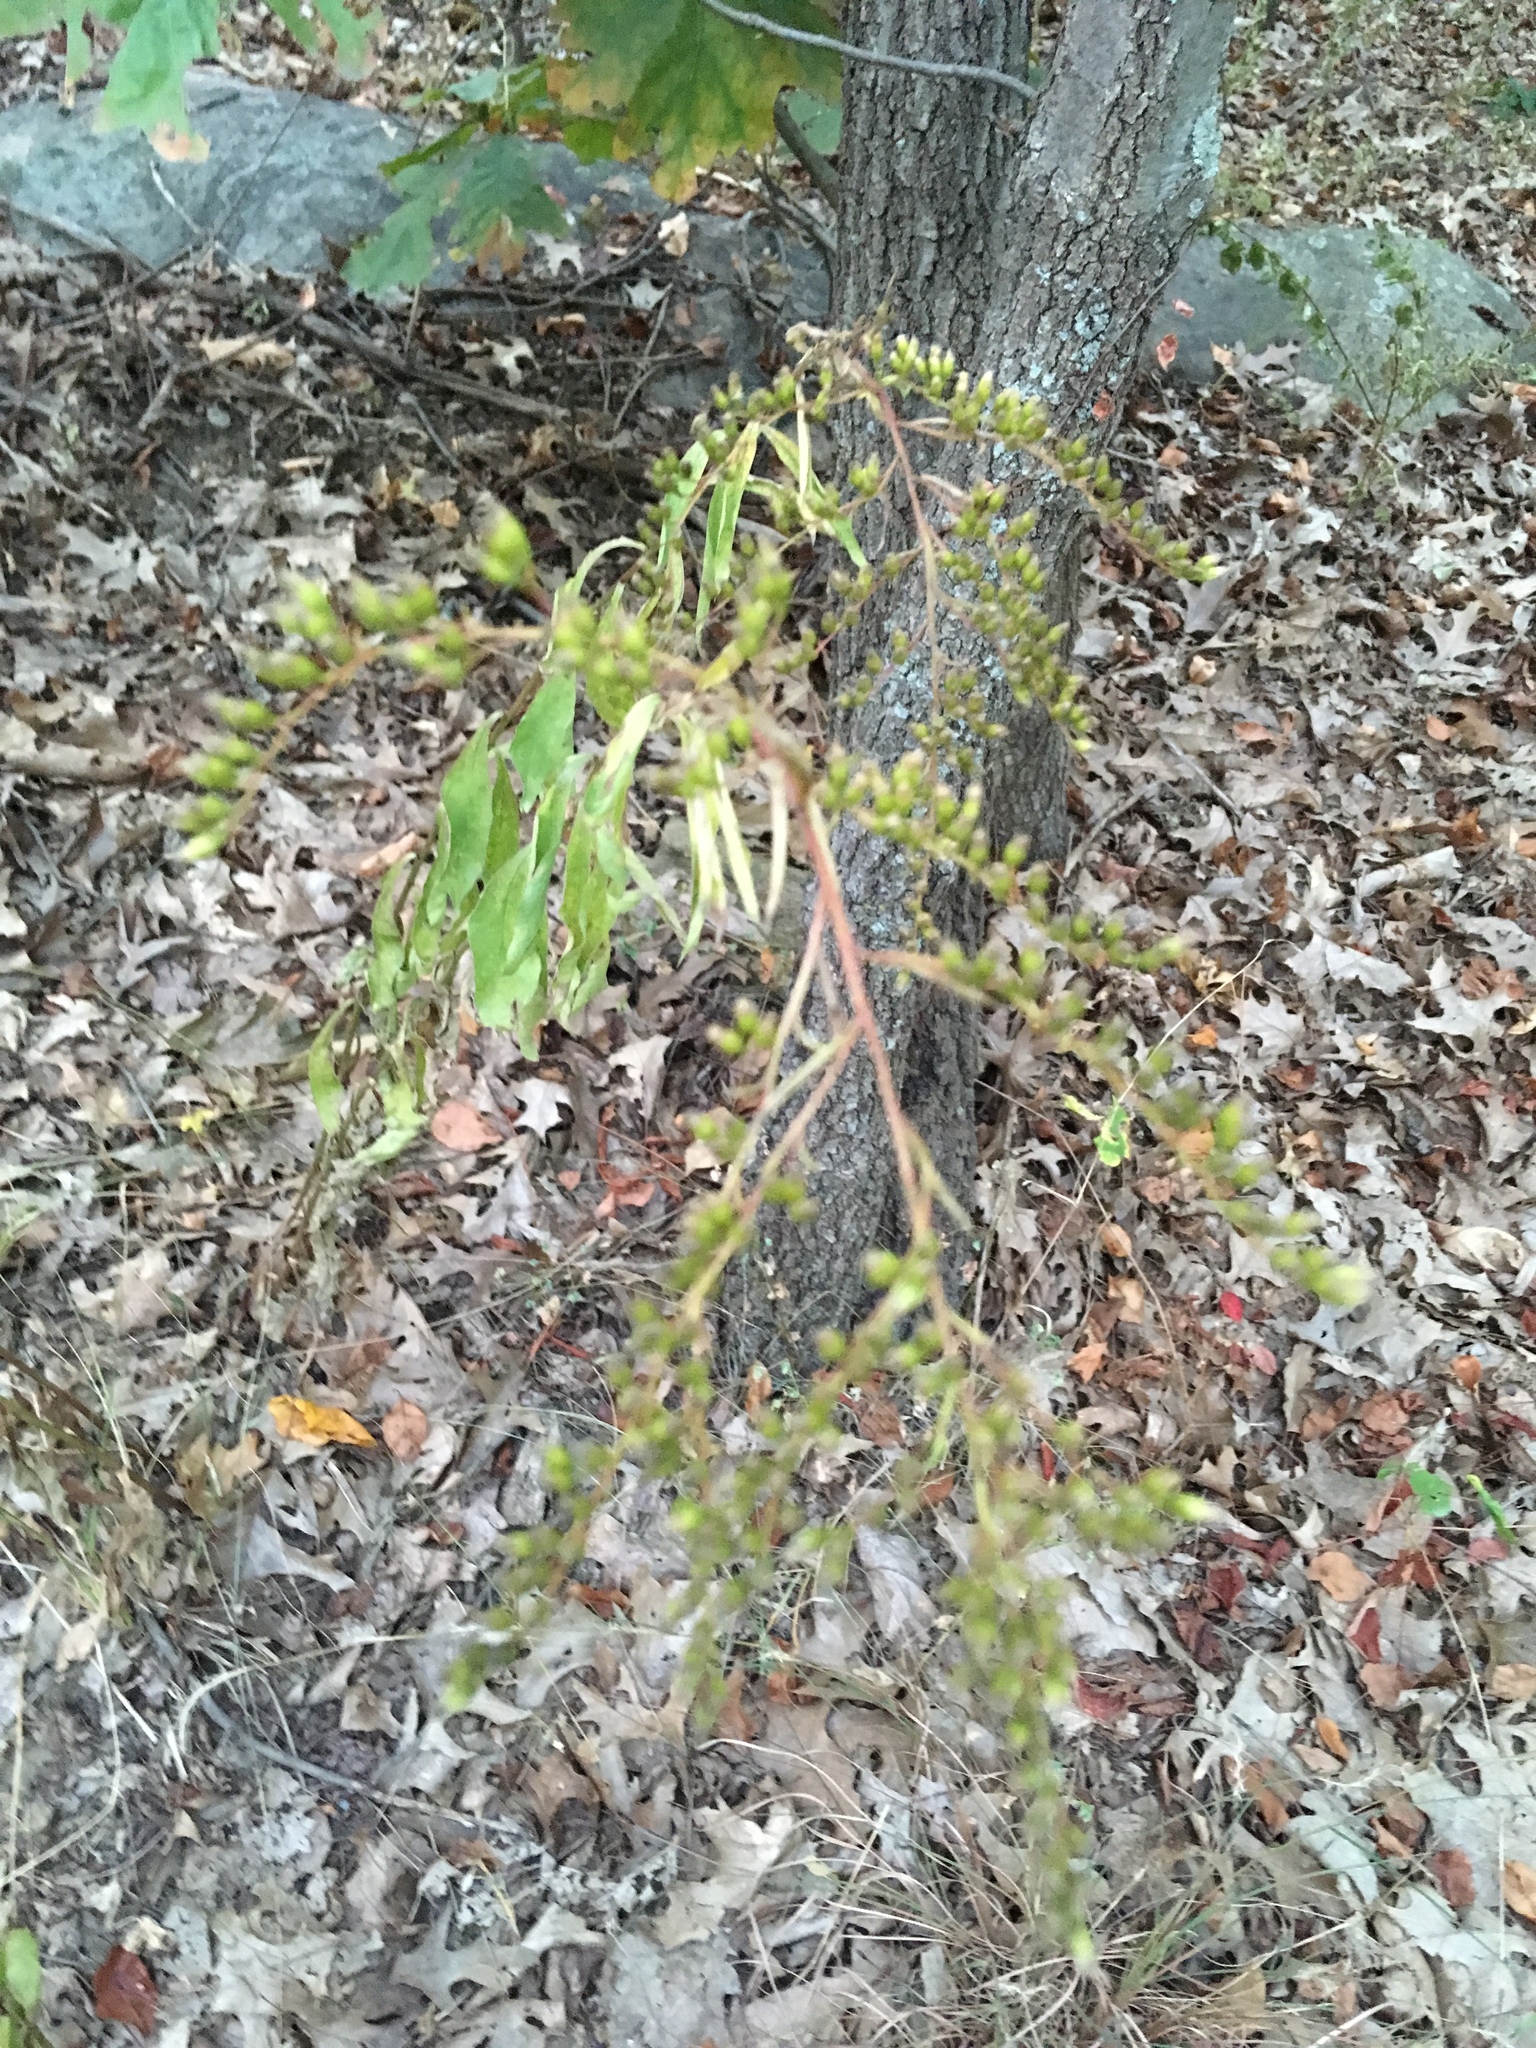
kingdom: Plantae
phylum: Tracheophyta
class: Magnoliopsida
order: Asterales
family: Asteraceae
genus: Solidago
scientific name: Solidago juncea
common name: Early goldenrod
